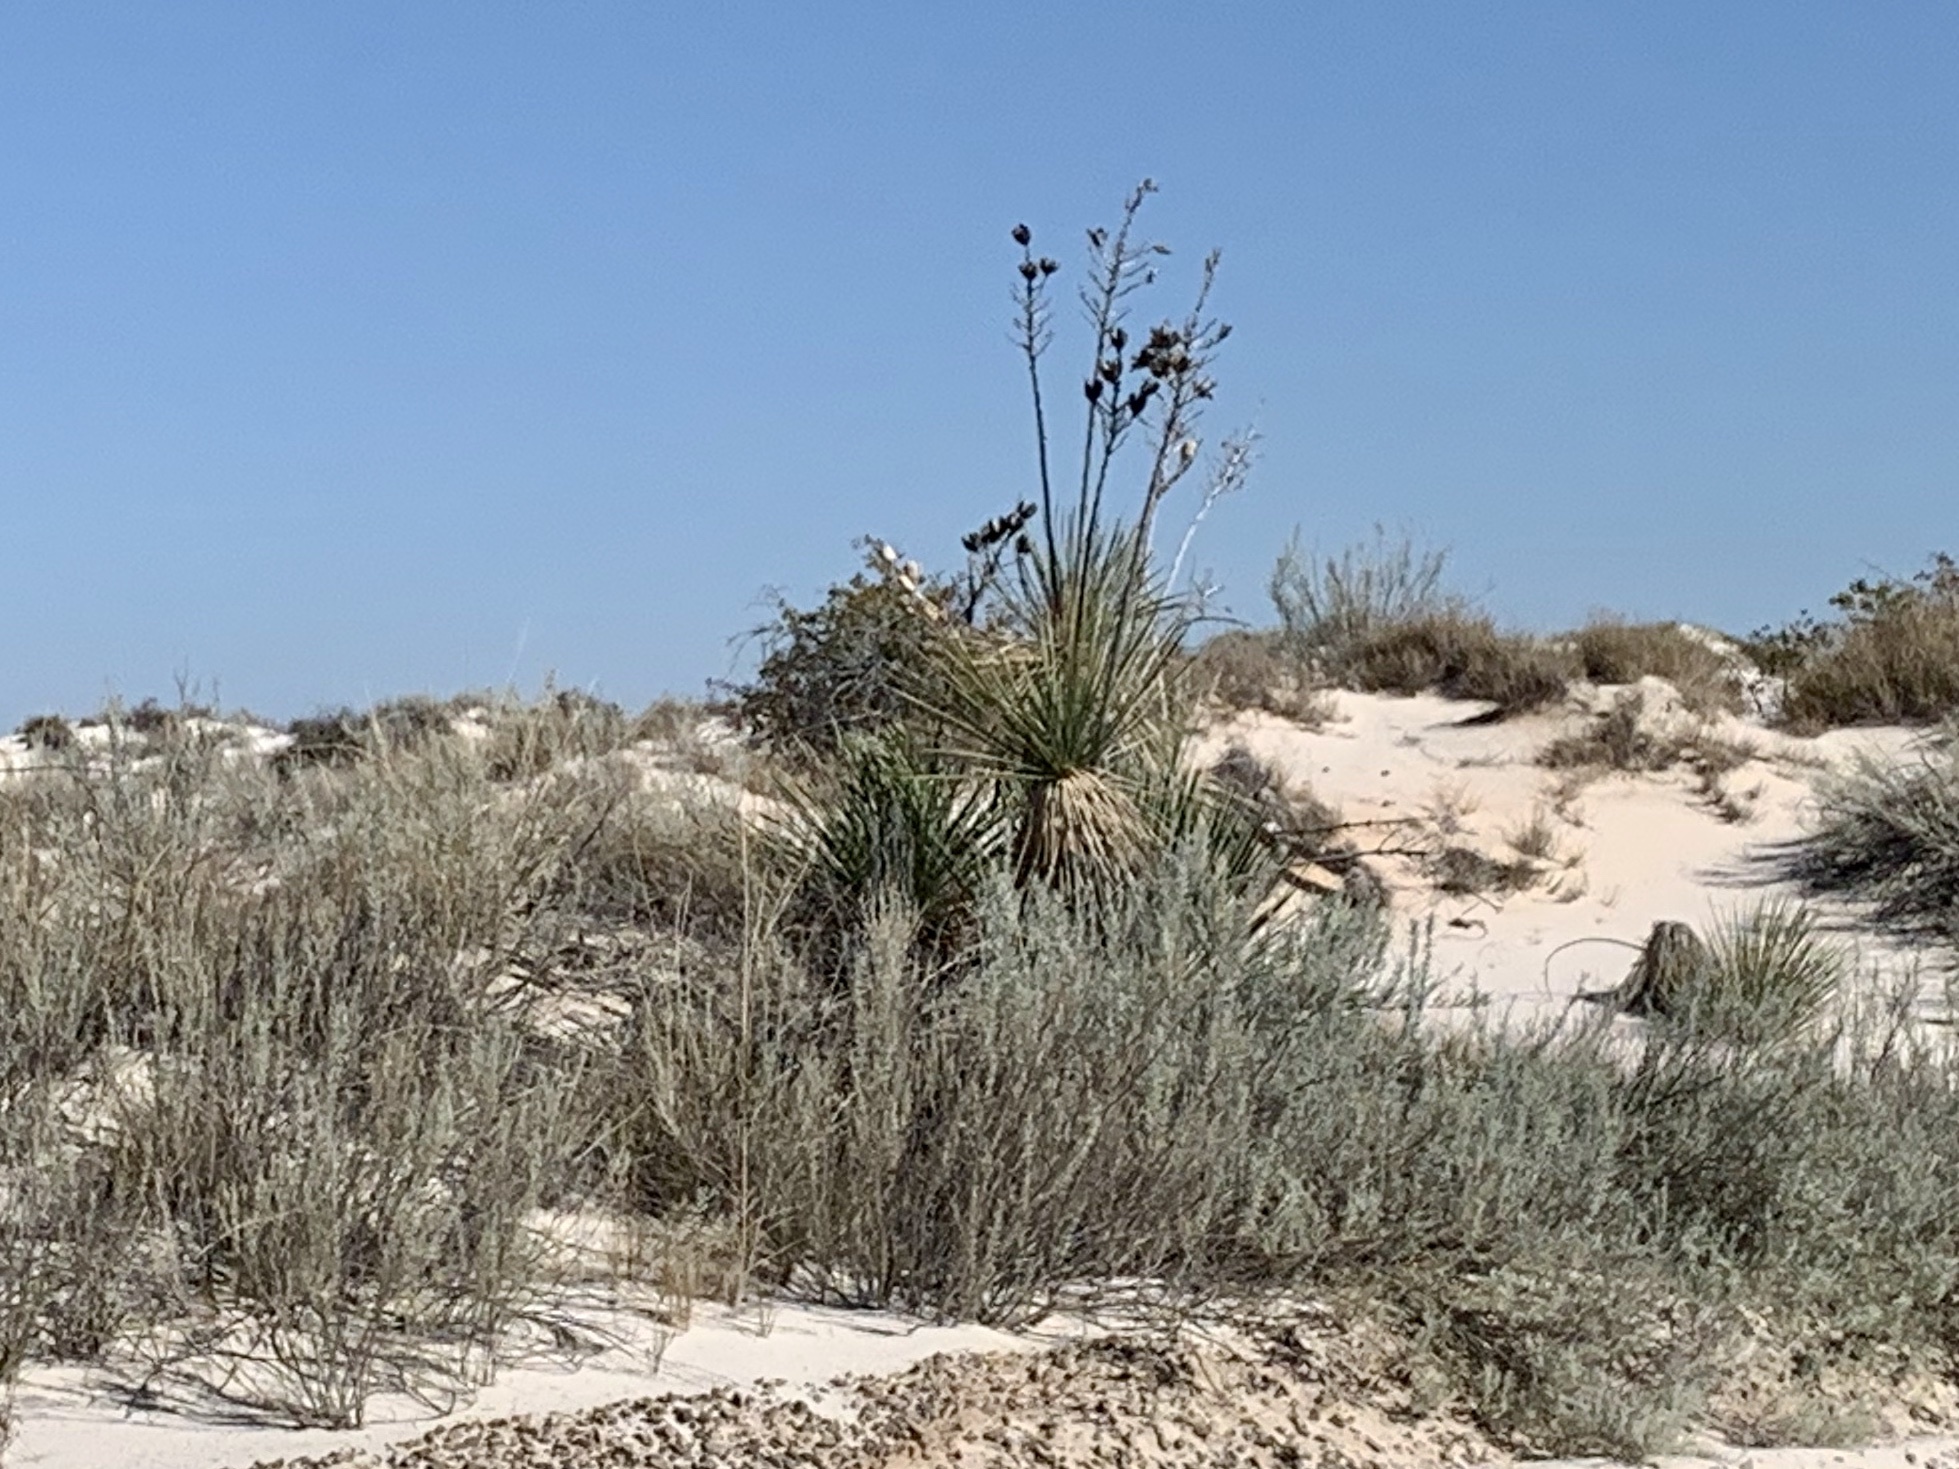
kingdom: Plantae
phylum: Tracheophyta
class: Liliopsida
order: Asparagales
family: Asparagaceae
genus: Yucca
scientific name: Yucca elata
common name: Palmella
